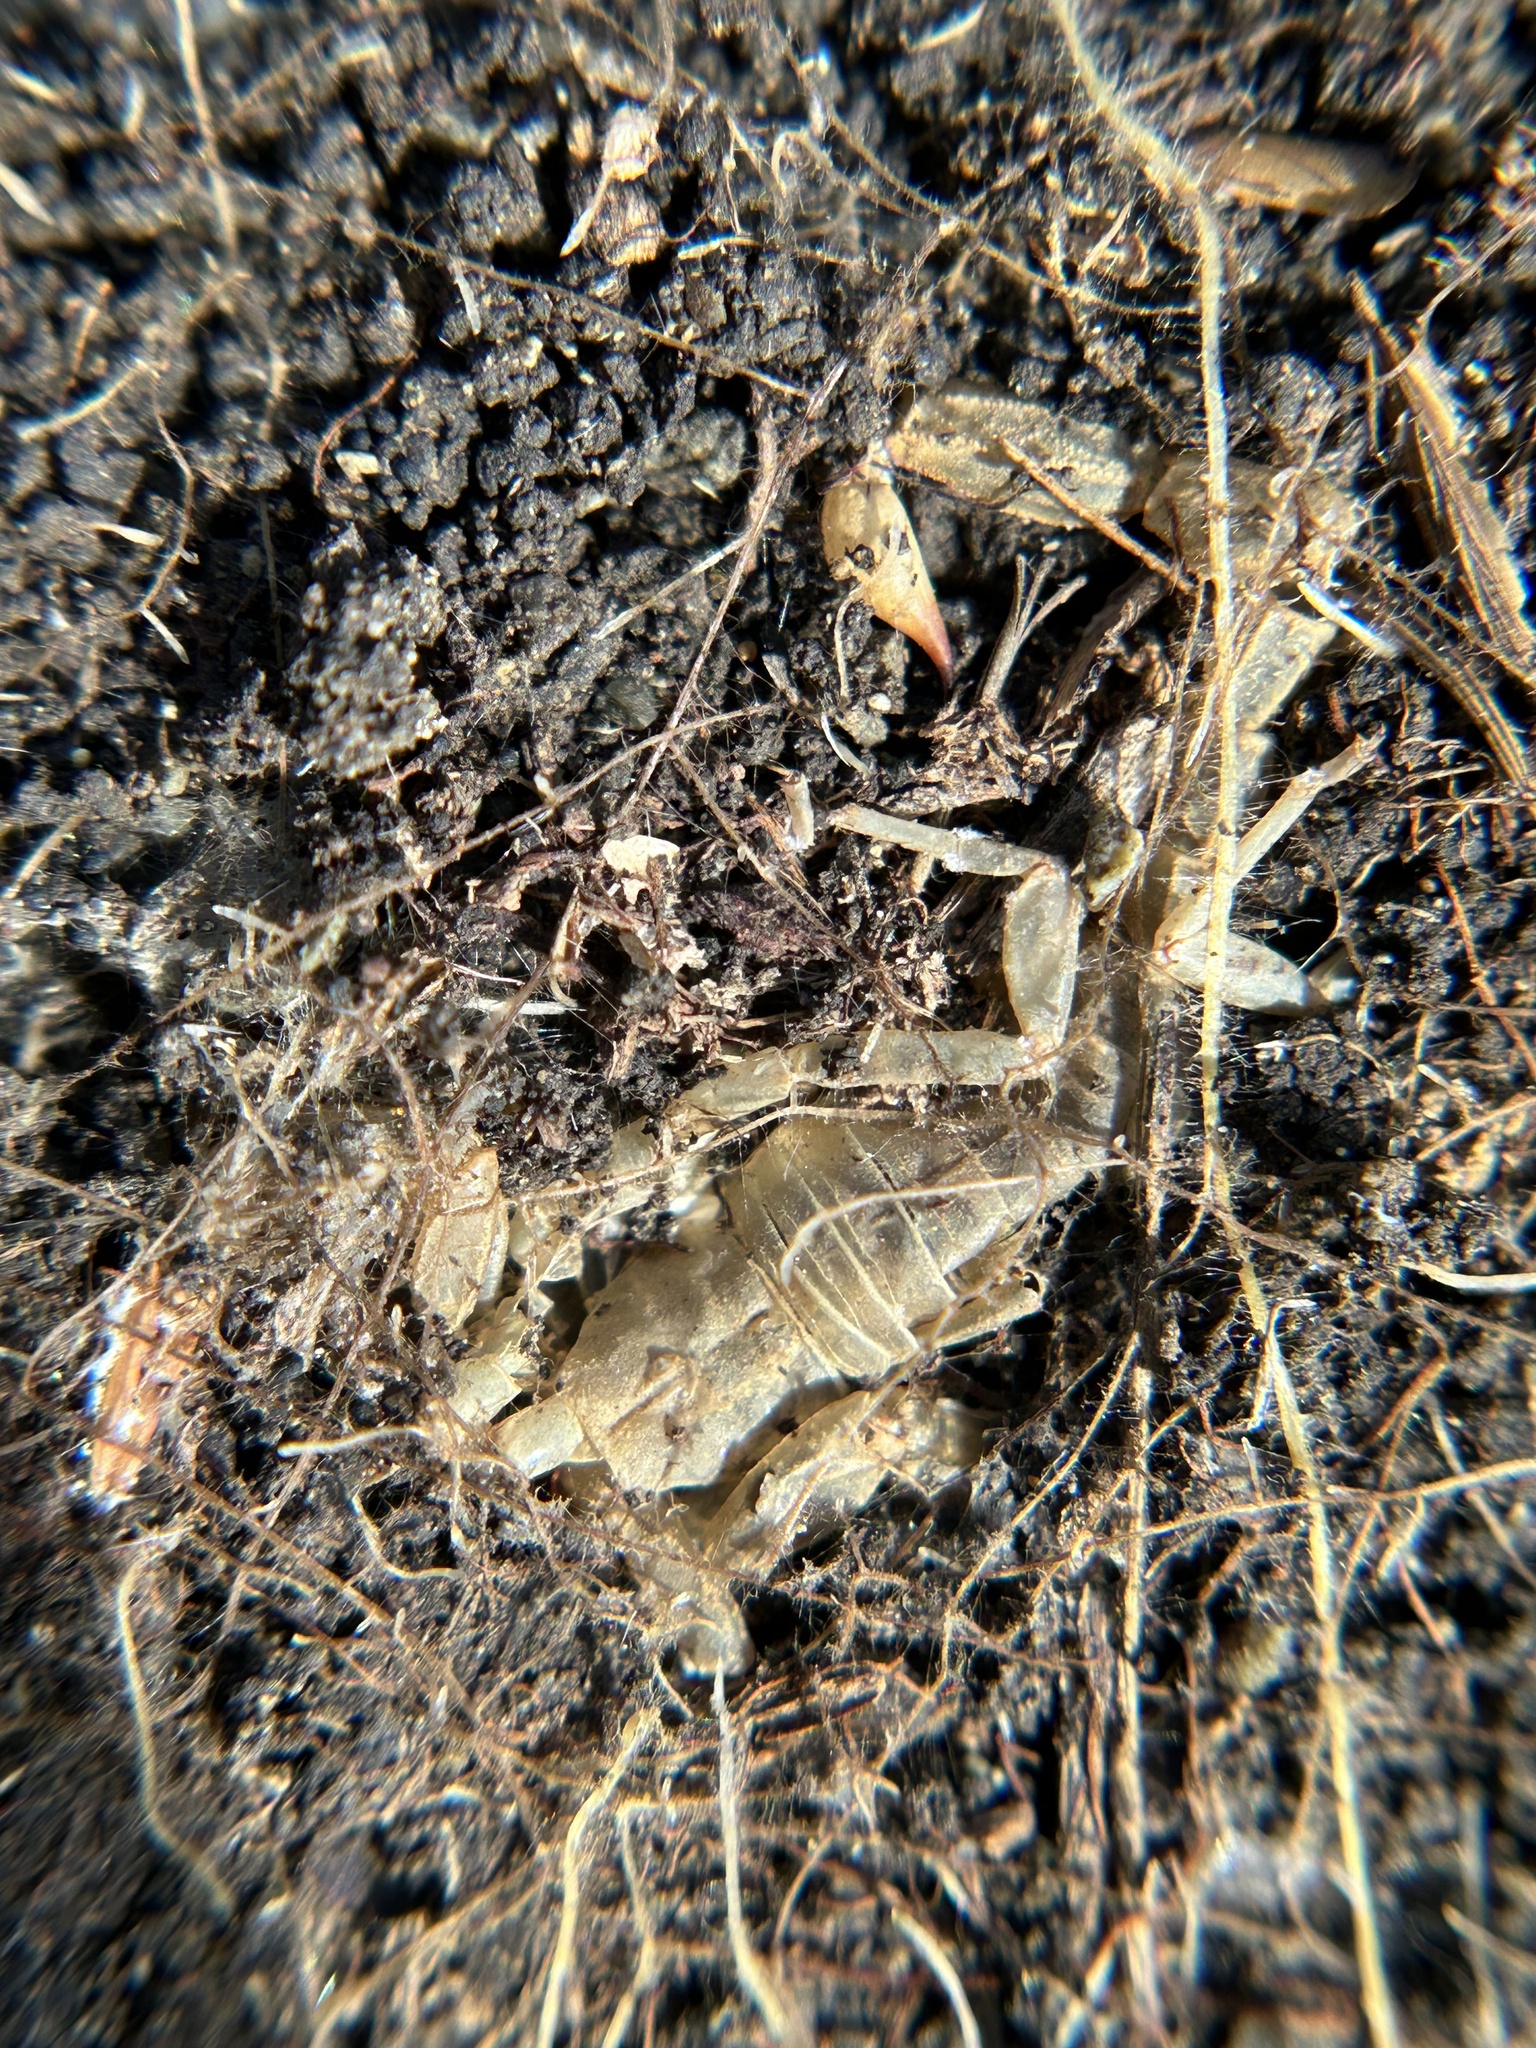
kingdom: Animalia
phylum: Arthropoda
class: Arachnida
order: Scorpiones
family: Vaejovidae
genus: Paruroctonus
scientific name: Paruroctonus silvestrii
